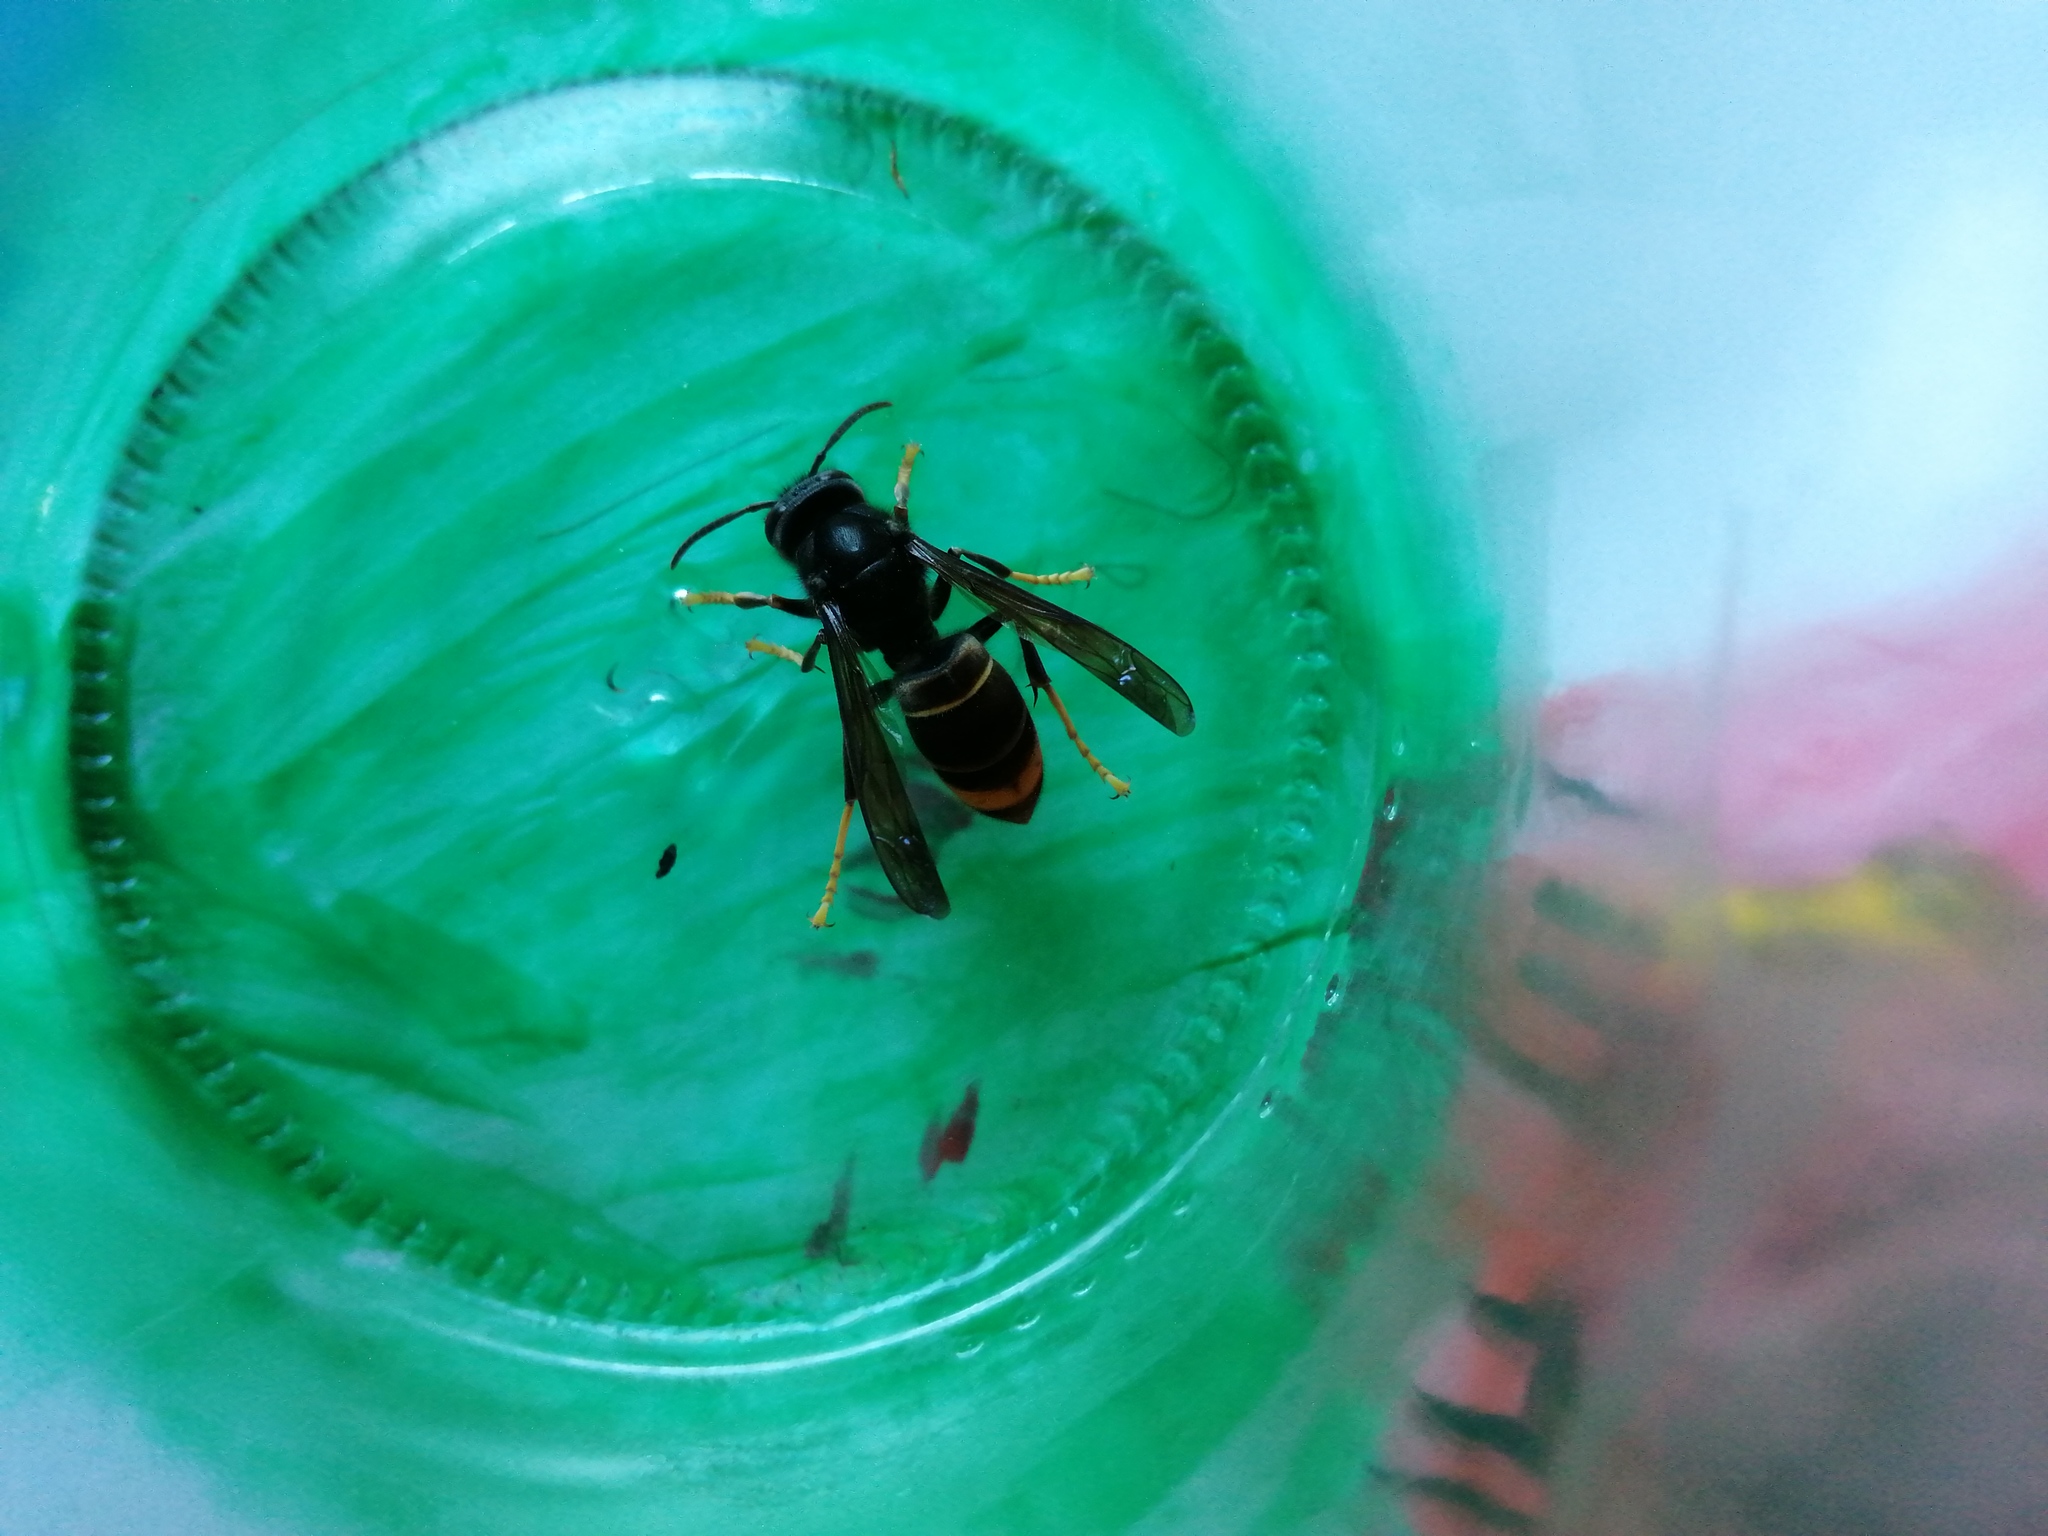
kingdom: Animalia
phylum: Arthropoda
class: Insecta
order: Hymenoptera
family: Vespidae
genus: Vespa
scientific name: Vespa velutina
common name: Asian hornet
